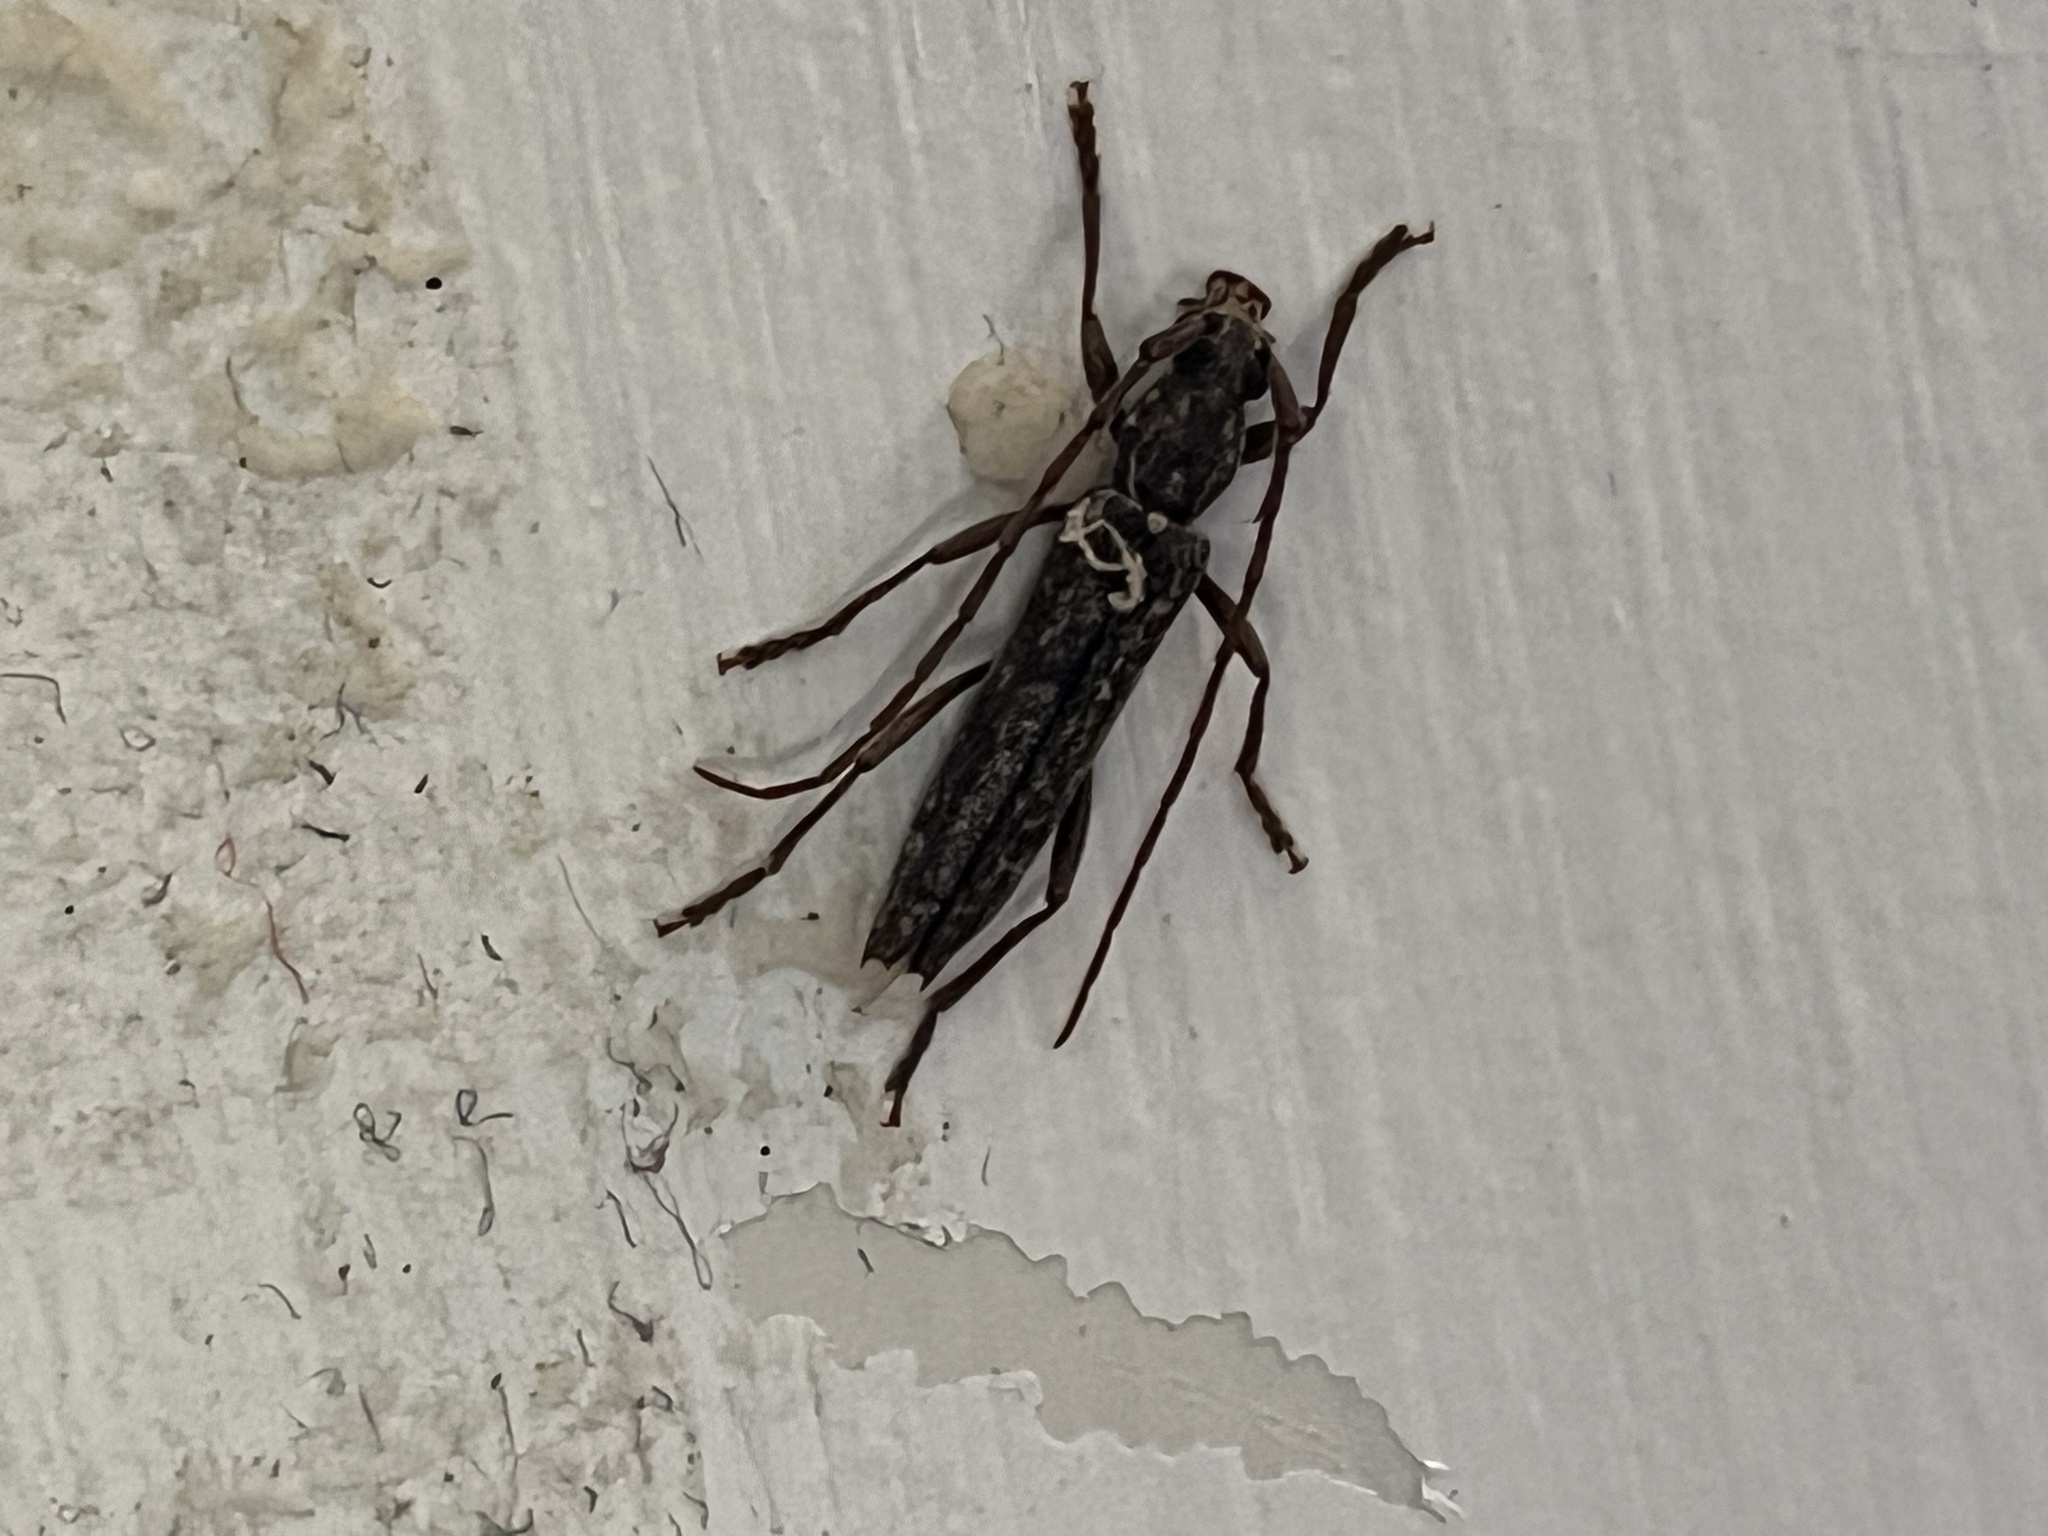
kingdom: Animalia
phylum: Arthropoda
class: Insecta
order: Coleoptera
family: Cerambycidae
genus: Anelaphus
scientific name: Anelaphus villosus
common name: Twig pruner
